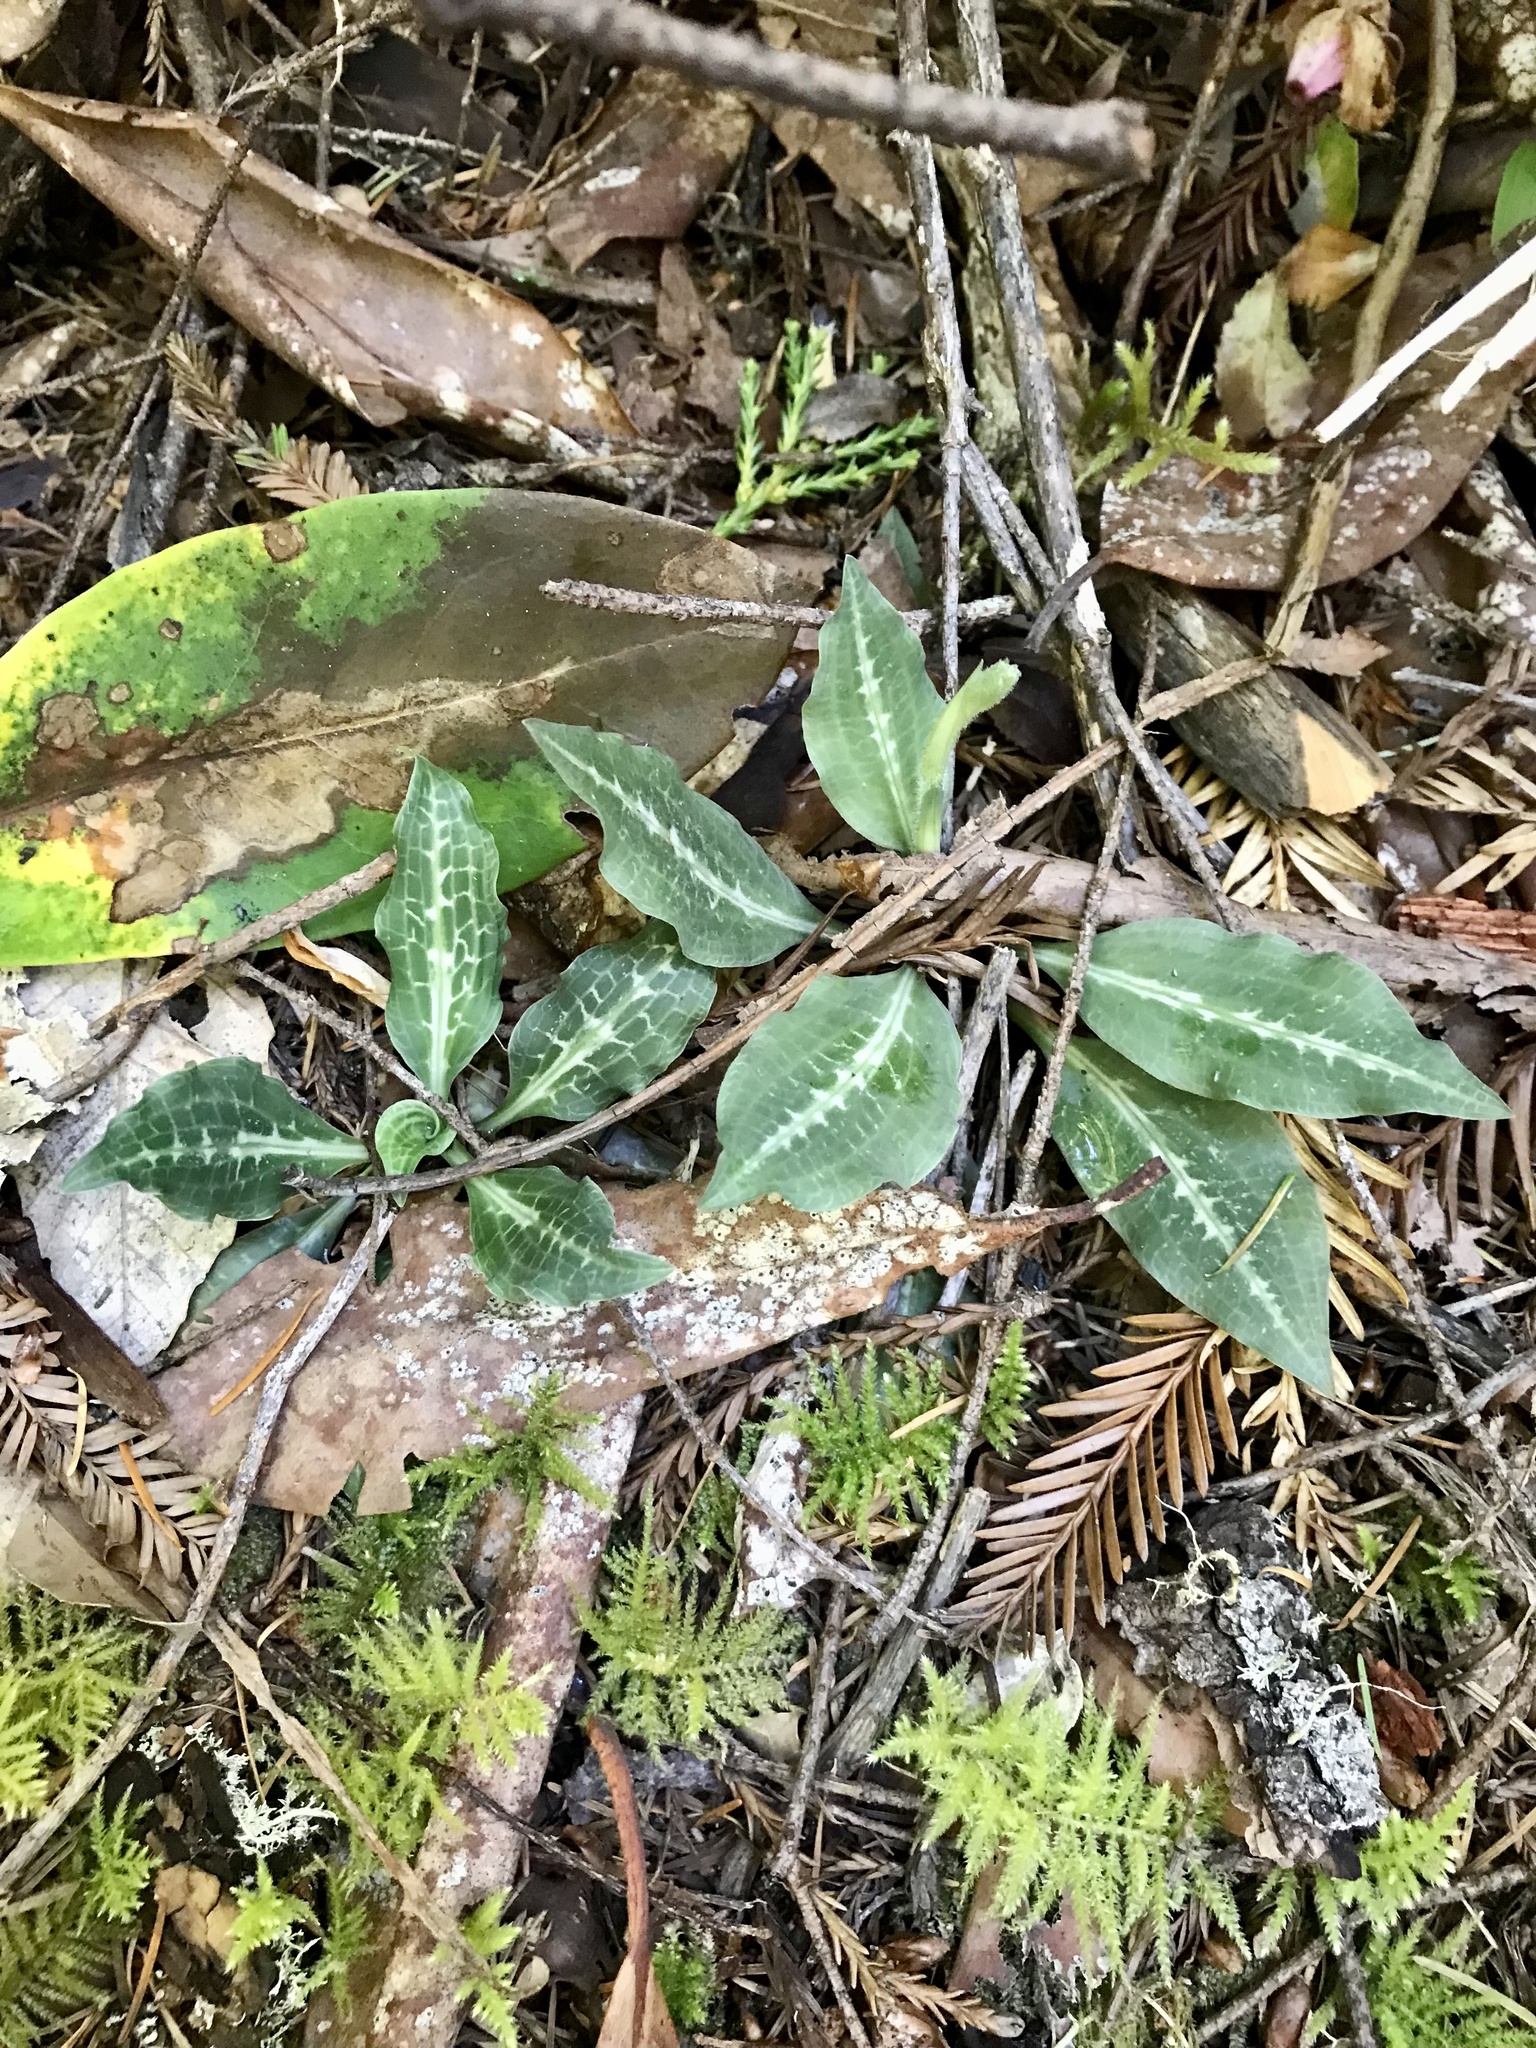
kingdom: Plantae
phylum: Tracheophyta
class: Liliopsida
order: Asparagales
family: Orchidaceae
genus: Goodyera
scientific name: Goodyera oblongifolia
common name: Giant rattlesnake-plantain
